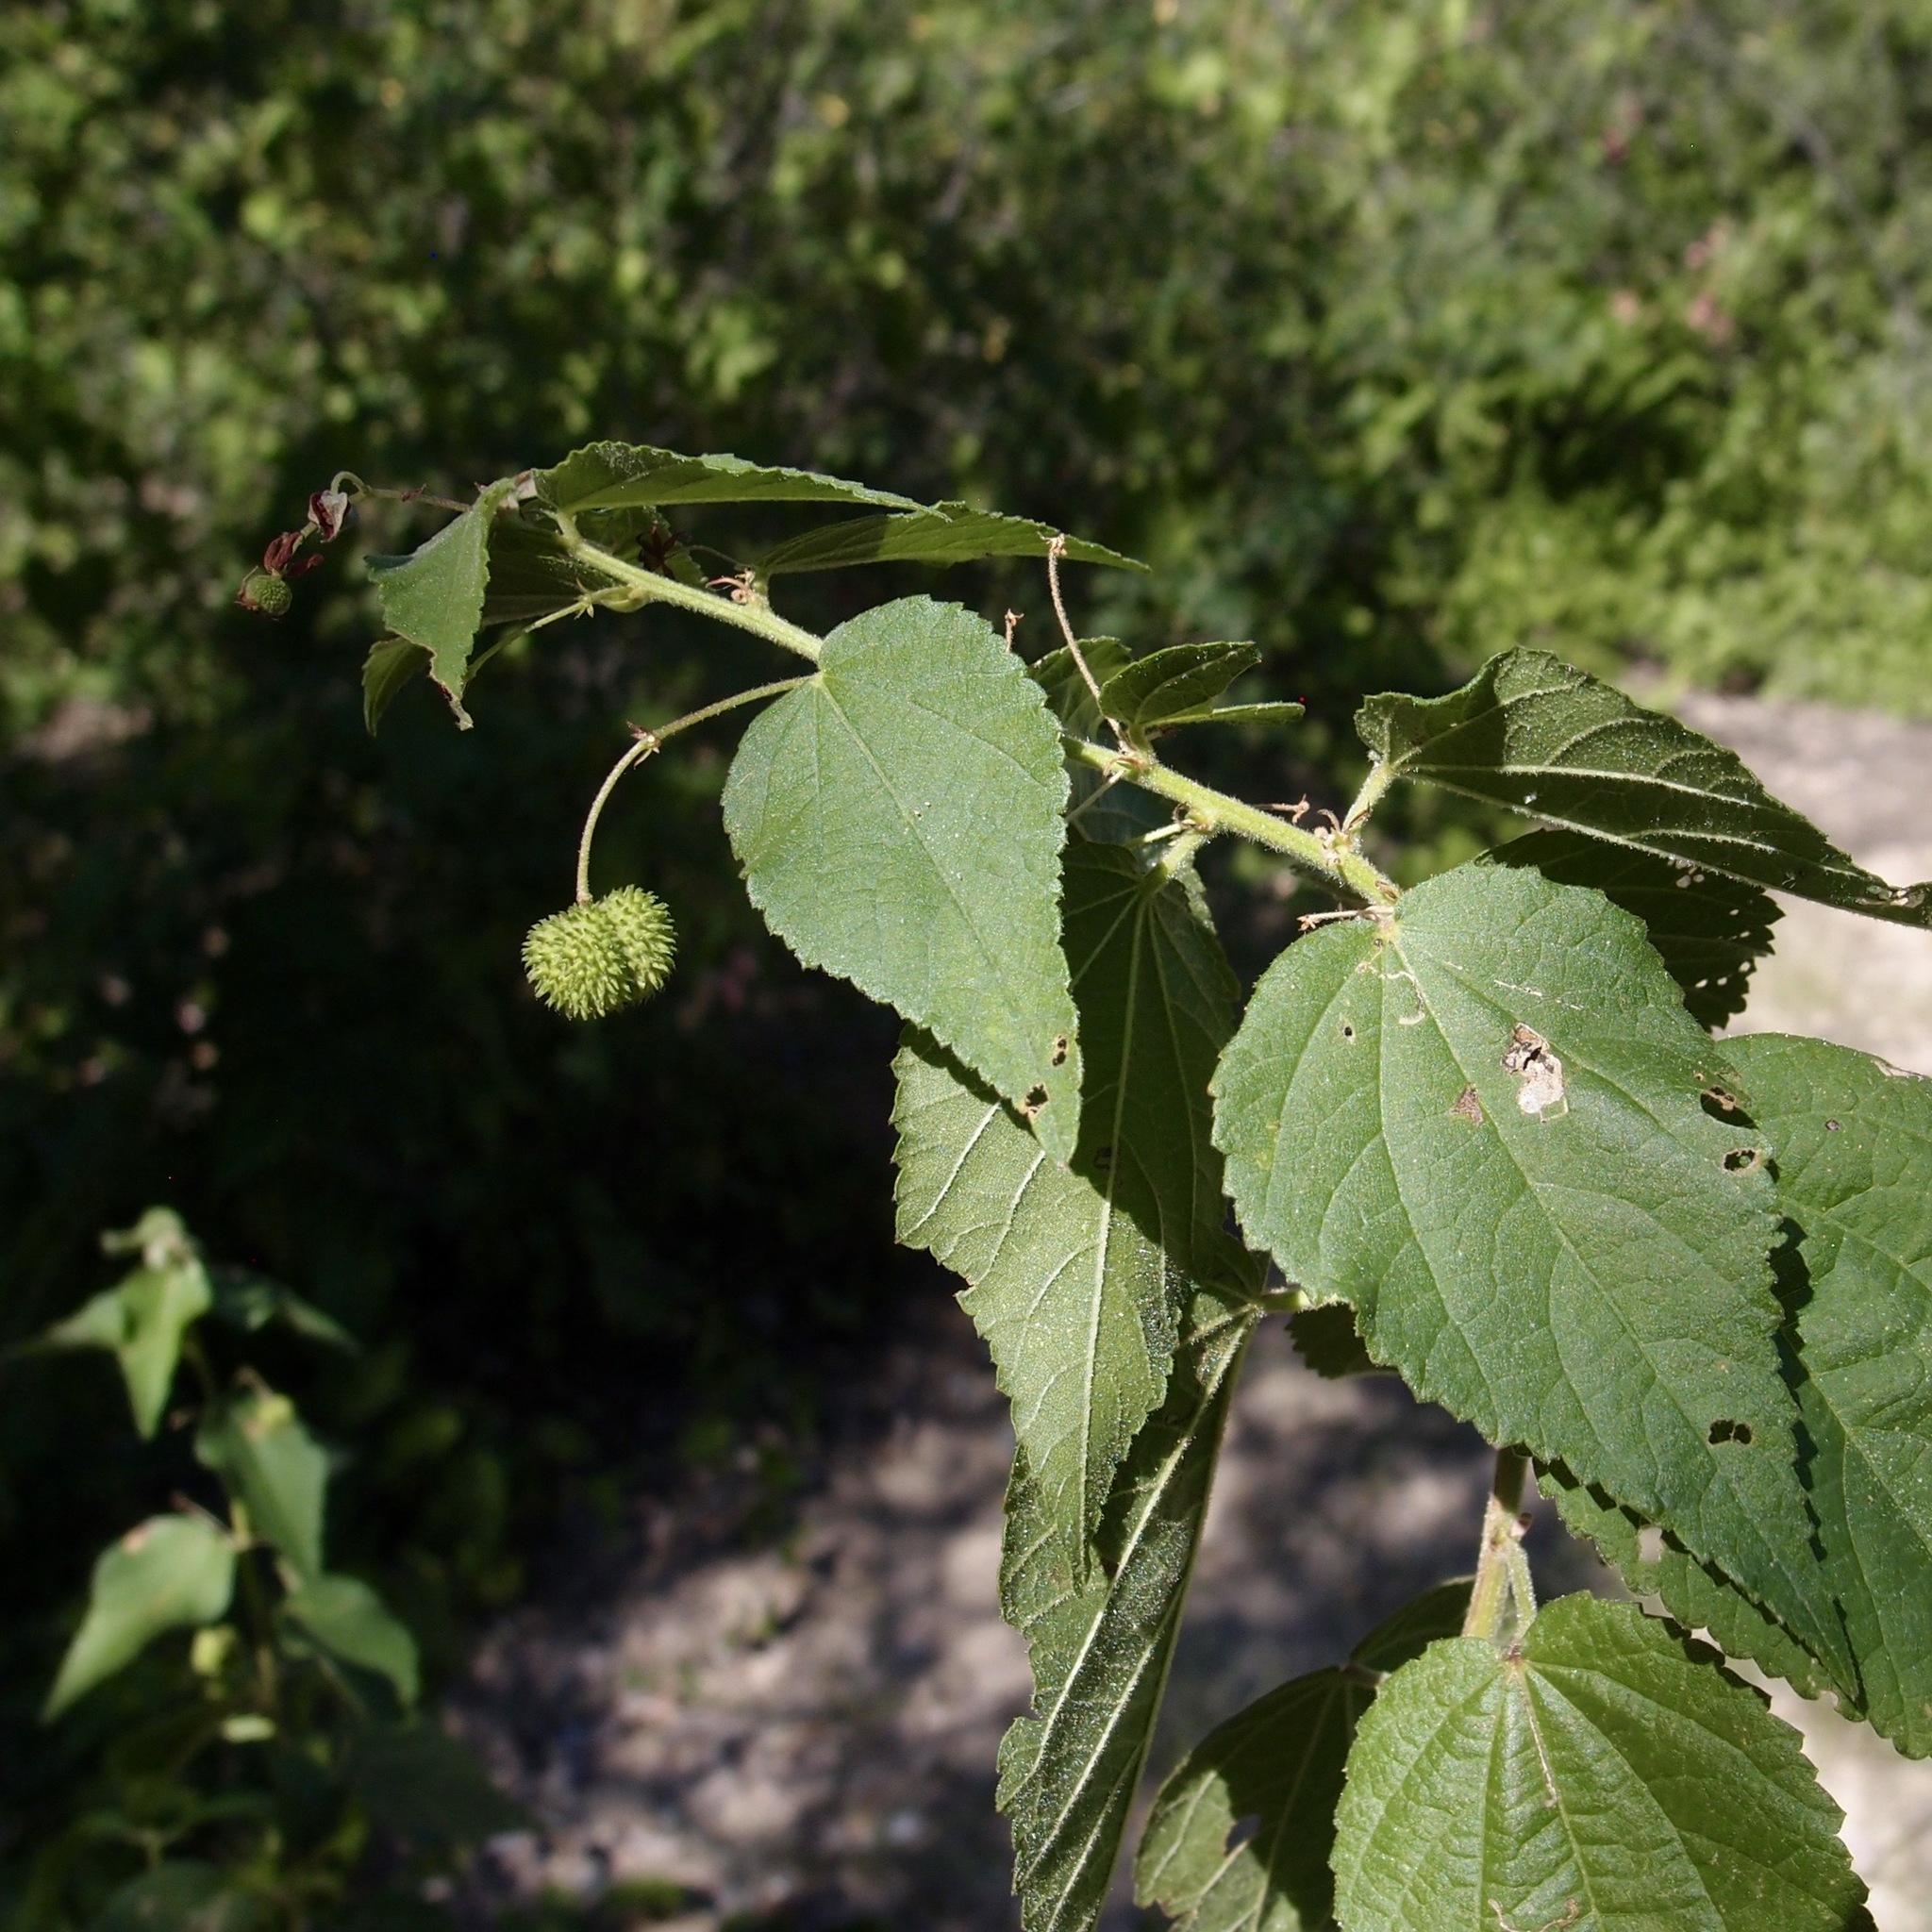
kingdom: Plantae
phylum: Tracheophyta
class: Magnoliopsida
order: Malvales
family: Malvaceae
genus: Ayenia
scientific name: Ayenia jaliscana
